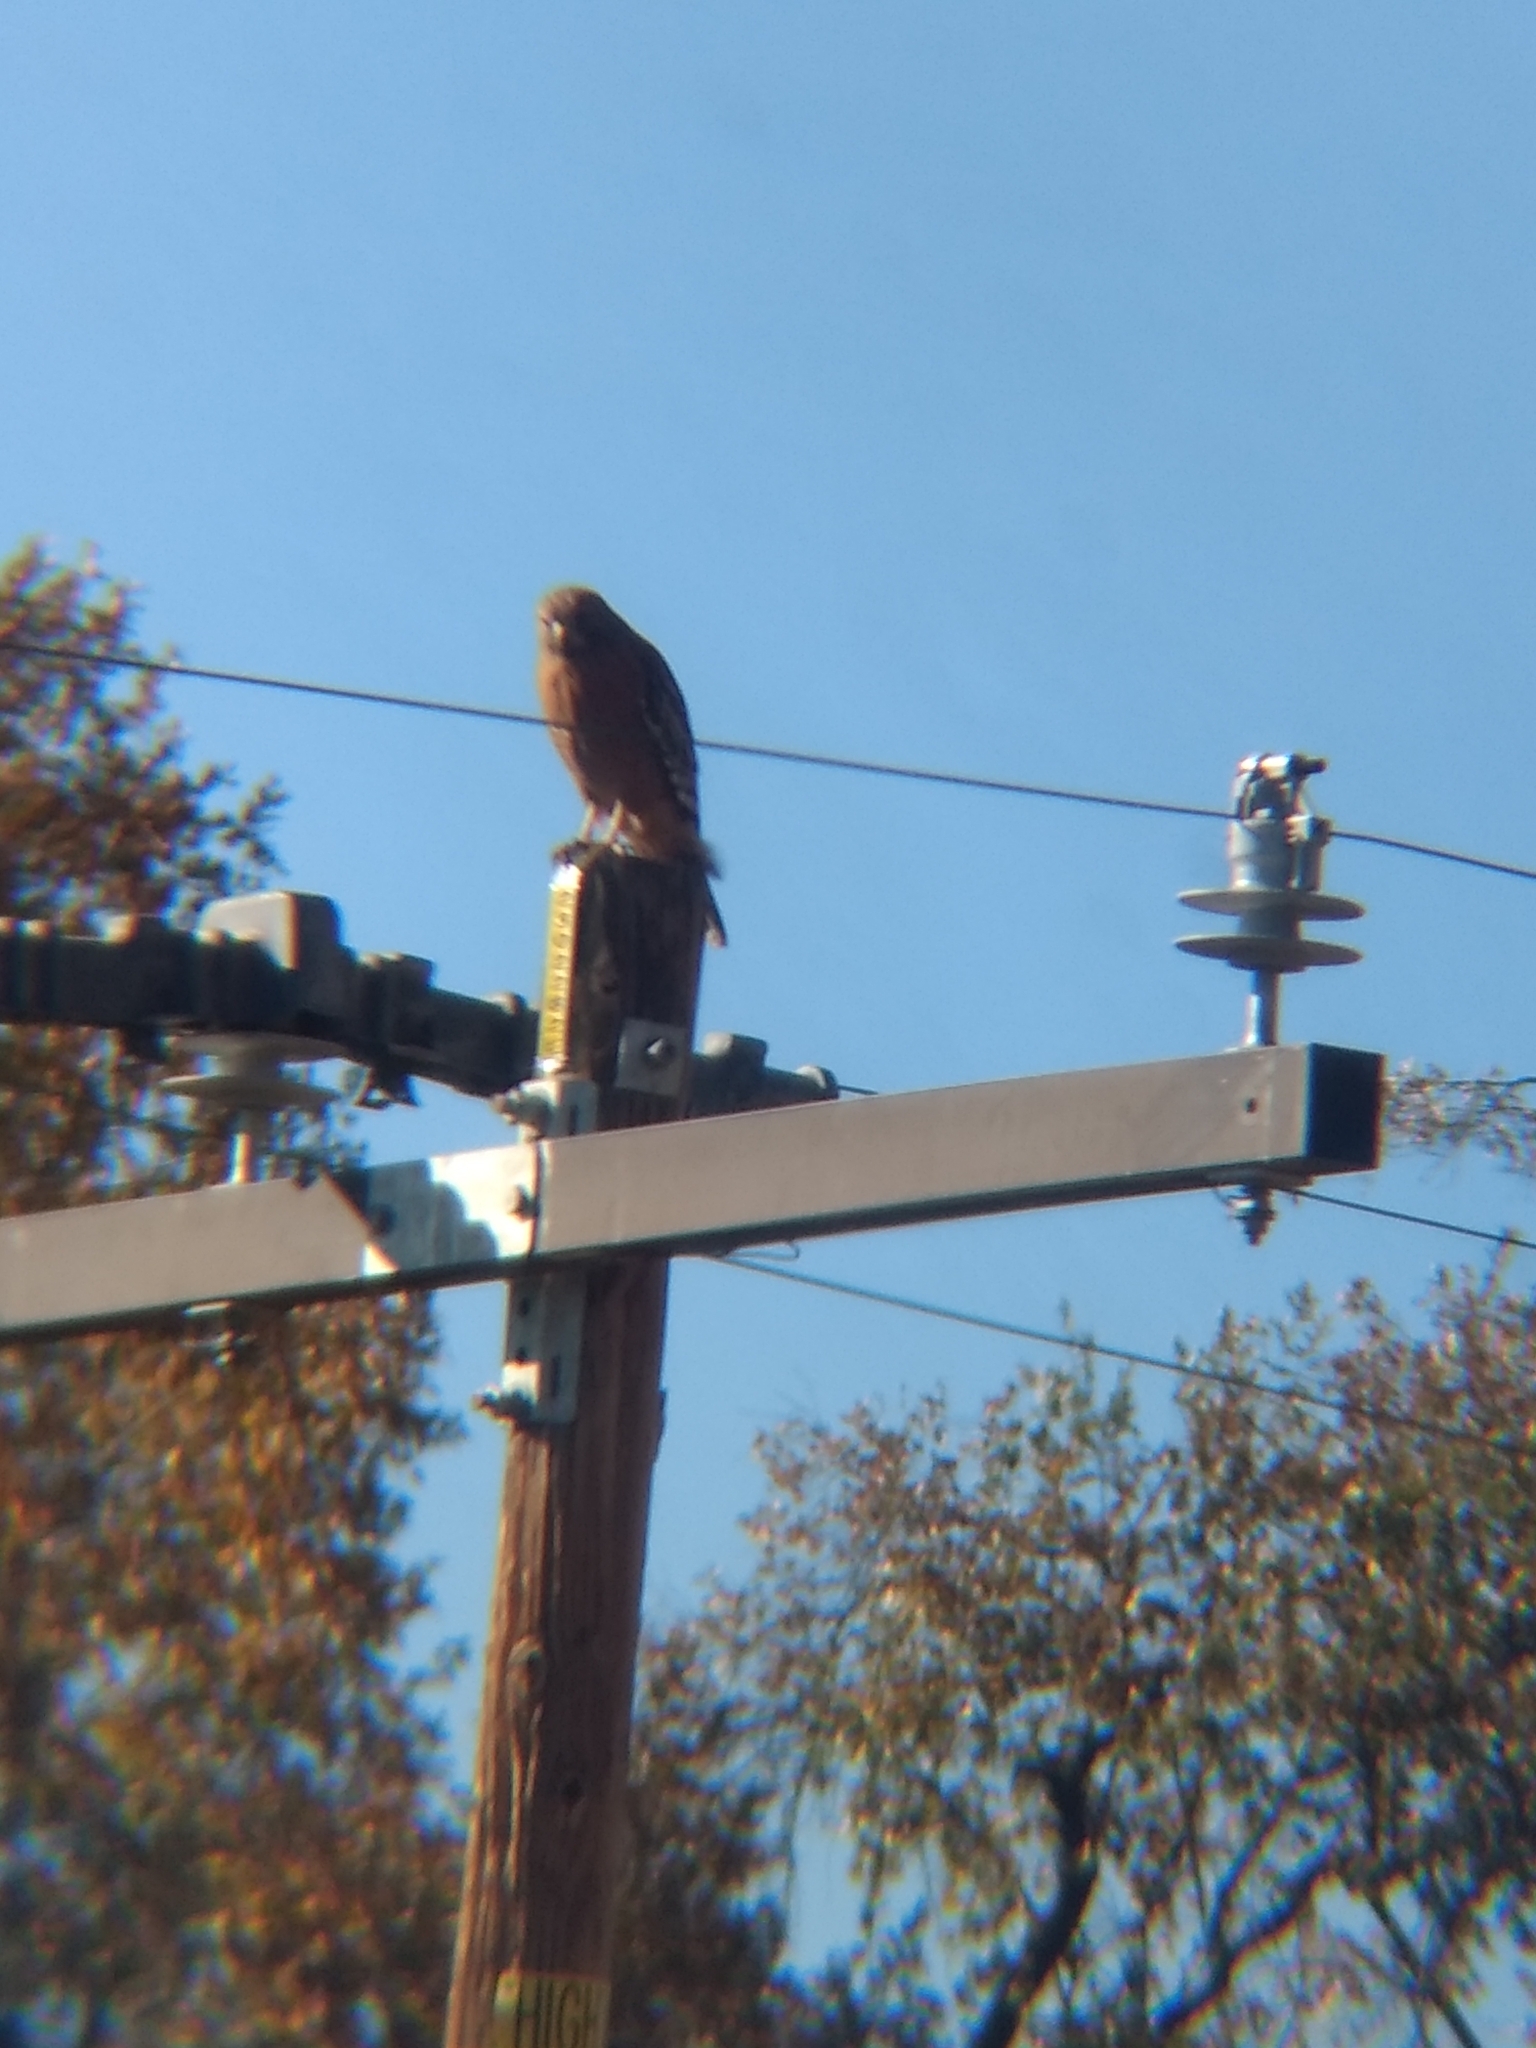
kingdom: Animalia
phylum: Chordata
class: Aves
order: Accipitriformes
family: Accipitridae
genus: Buteo
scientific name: Buteo lineatus
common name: Red-shouldered hawk
